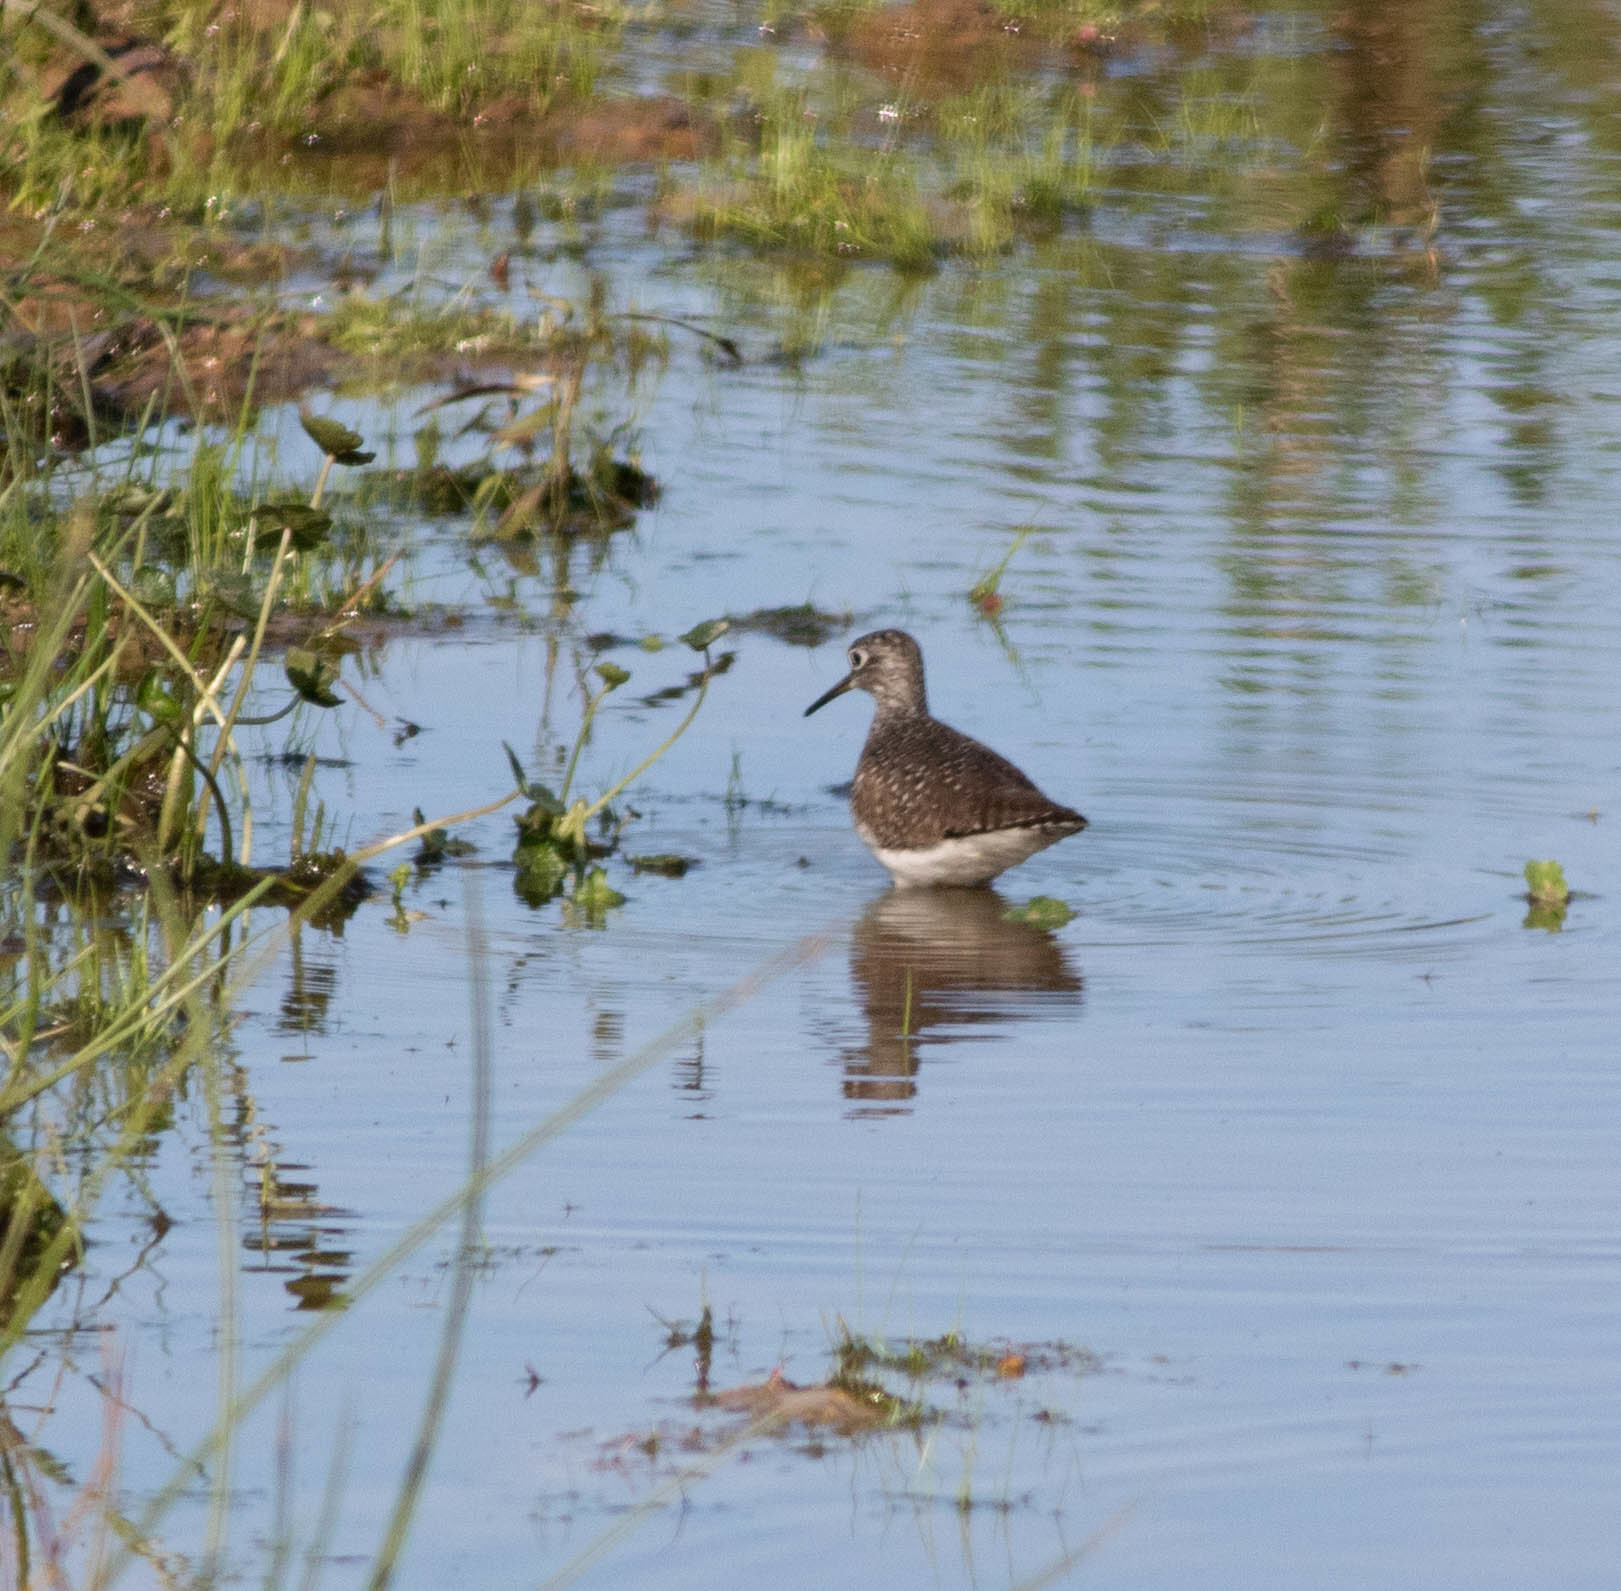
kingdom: Animalia
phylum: Chordata
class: Aves
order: Charadriiformes
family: Scolopacidae
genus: Tringa
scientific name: Tringa solitaria
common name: Solitary sandpiper
